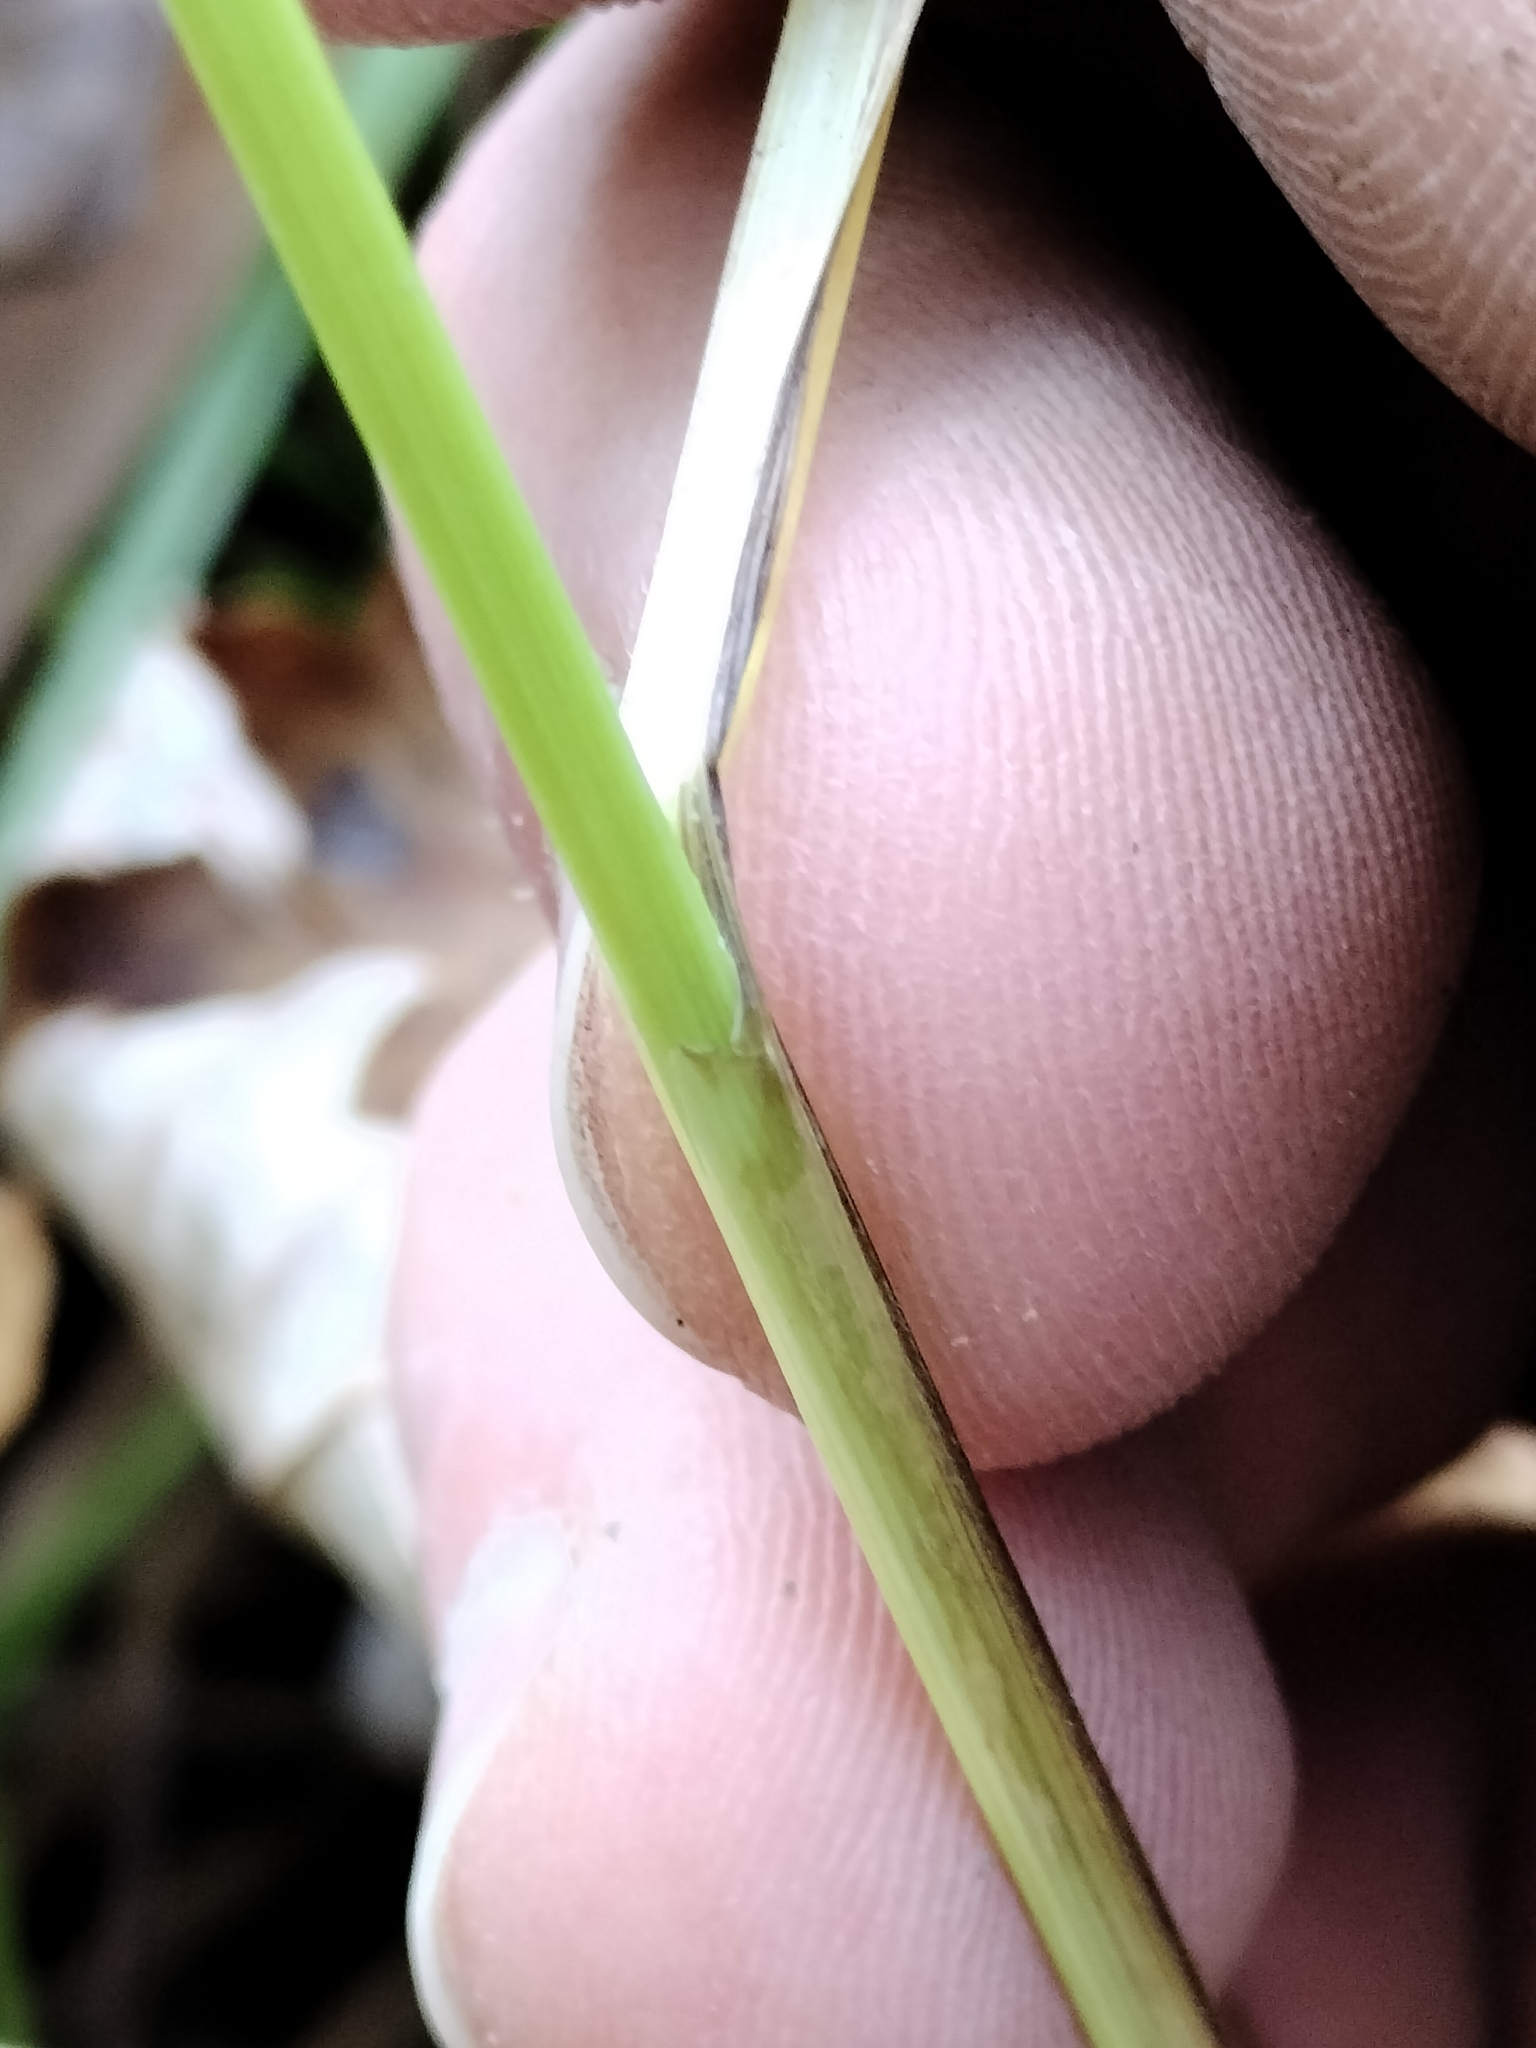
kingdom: Plantae
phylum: Tracheophyta
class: Liliopsida
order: Poales
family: Cyperaceae
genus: Carex
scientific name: Carex tuckermanii
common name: Tuckerman's sedge
